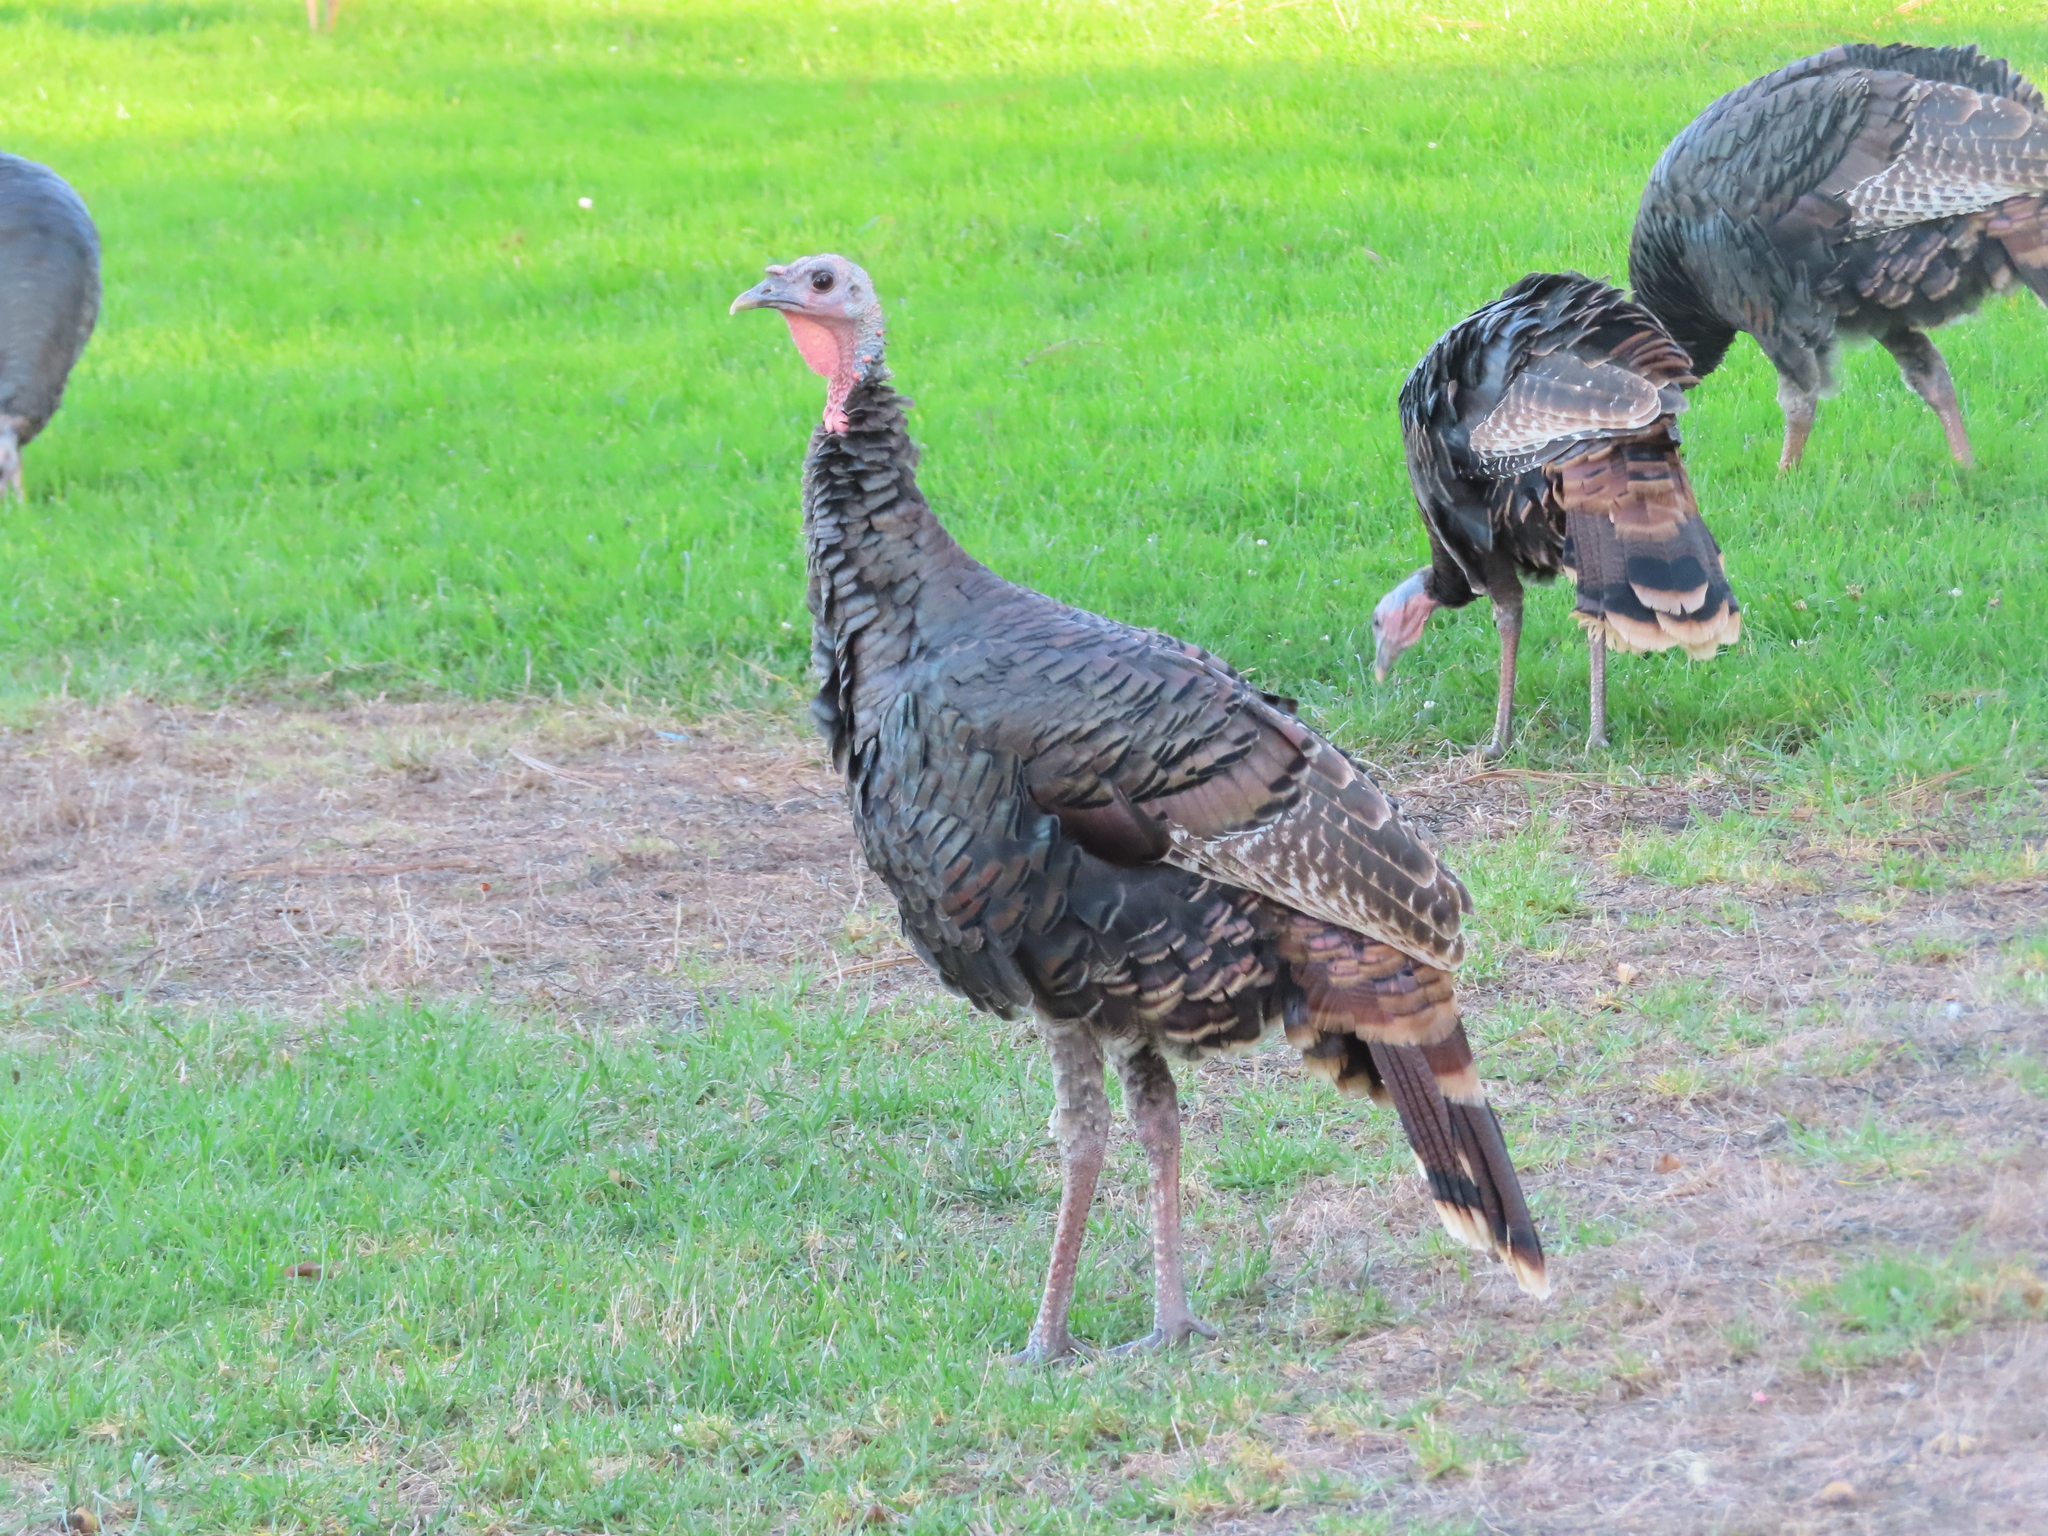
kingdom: Animalia
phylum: Chordata
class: Aves
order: Galliformes
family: Phasianidae
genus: Meleagris
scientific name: Meleagris gallopavo
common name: Wild turkey
